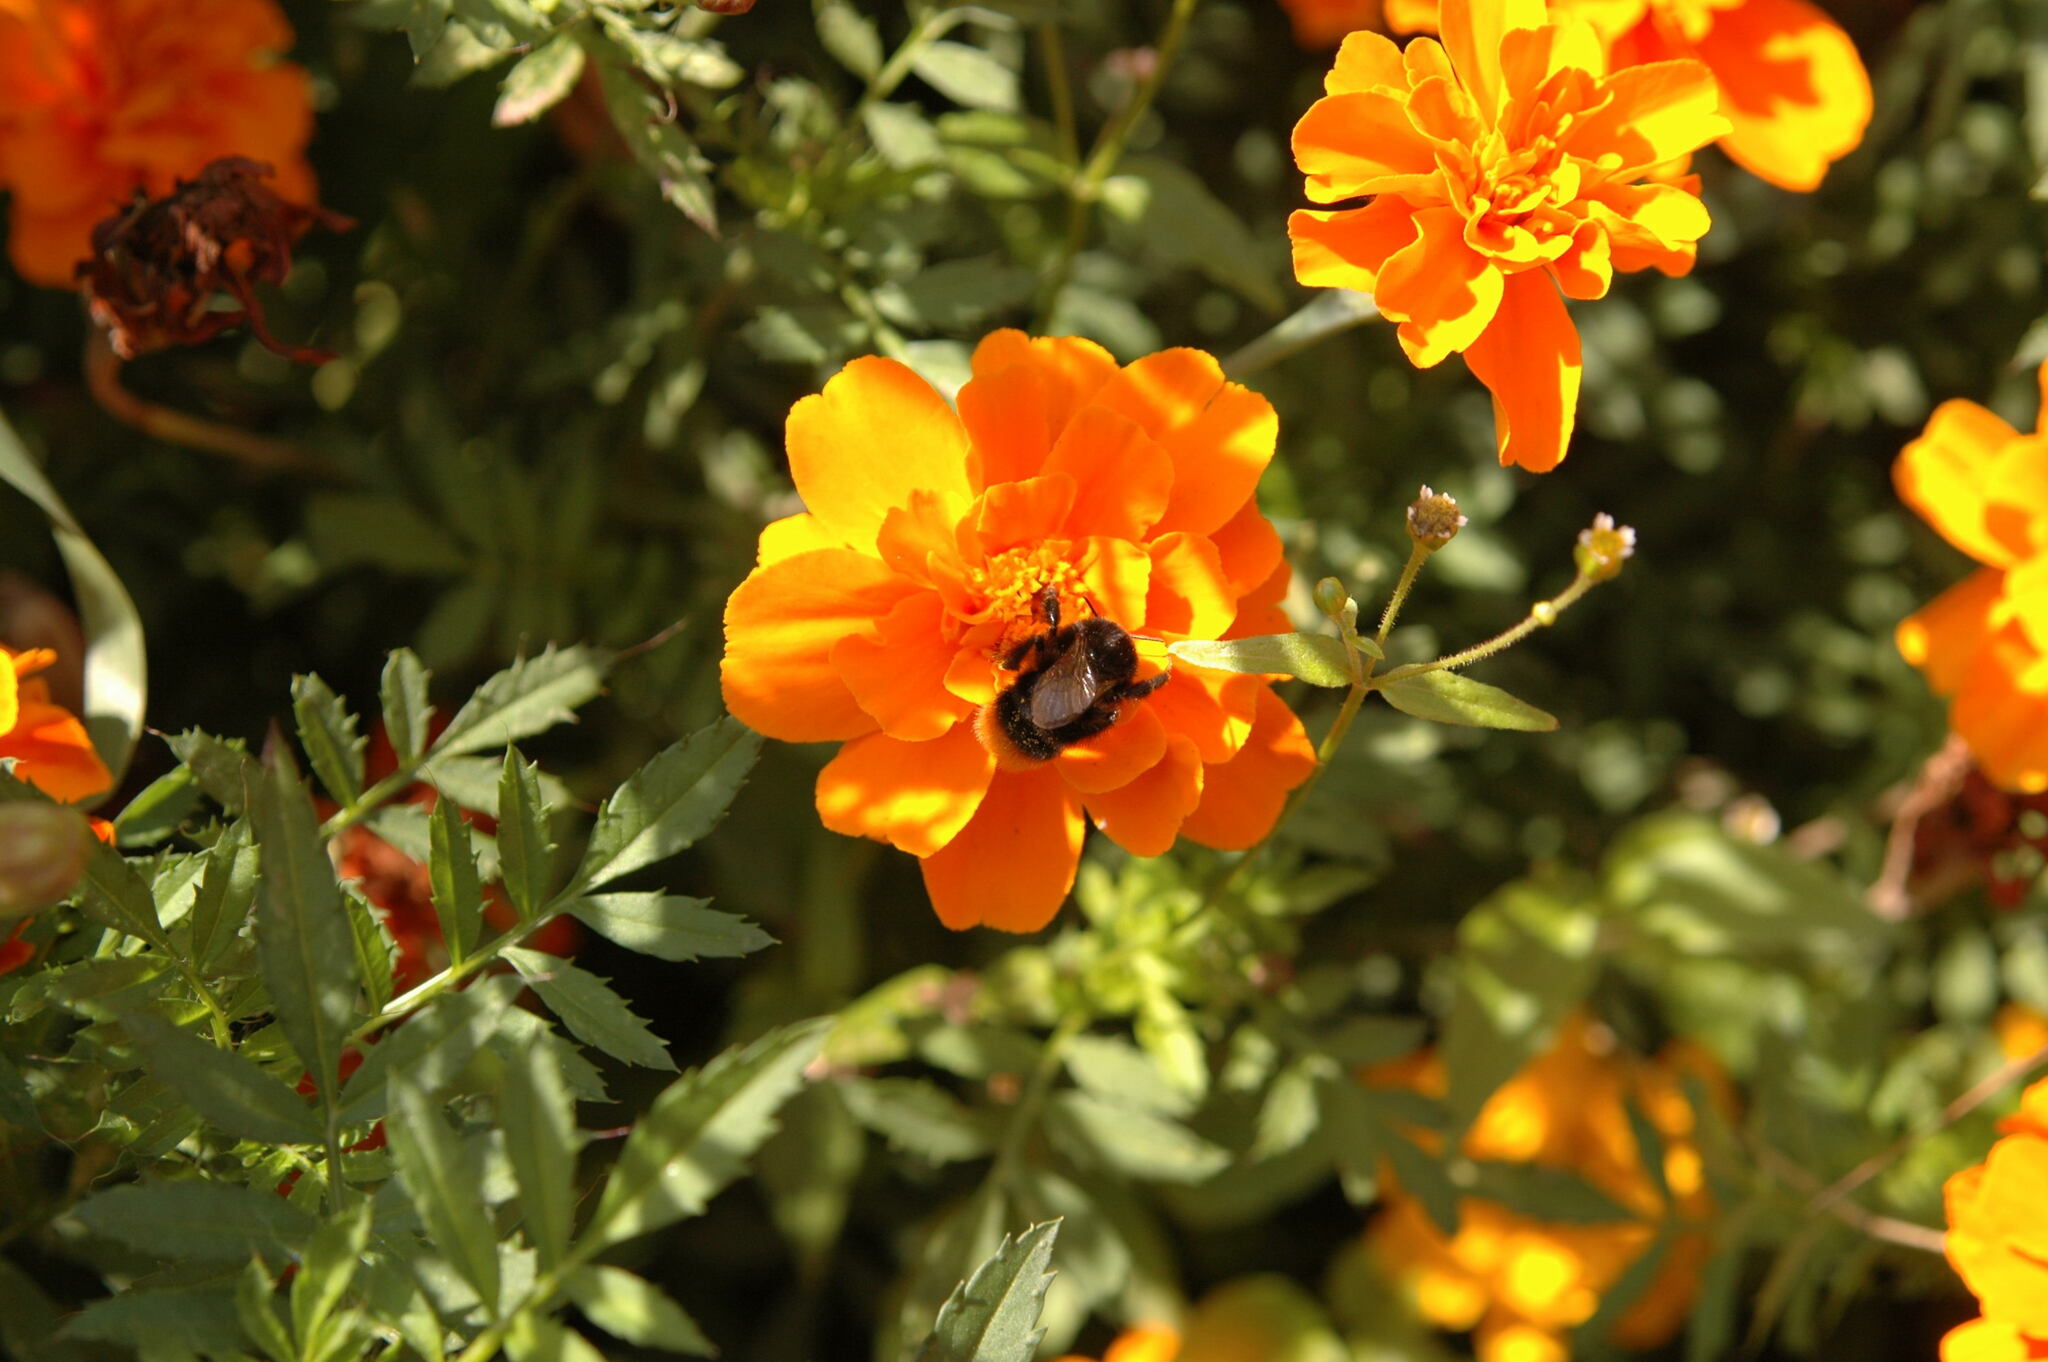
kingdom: Animalia
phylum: Arthropoda
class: Insecta
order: Hymenoptera
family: Apidae
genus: Bombus
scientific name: Bombus
